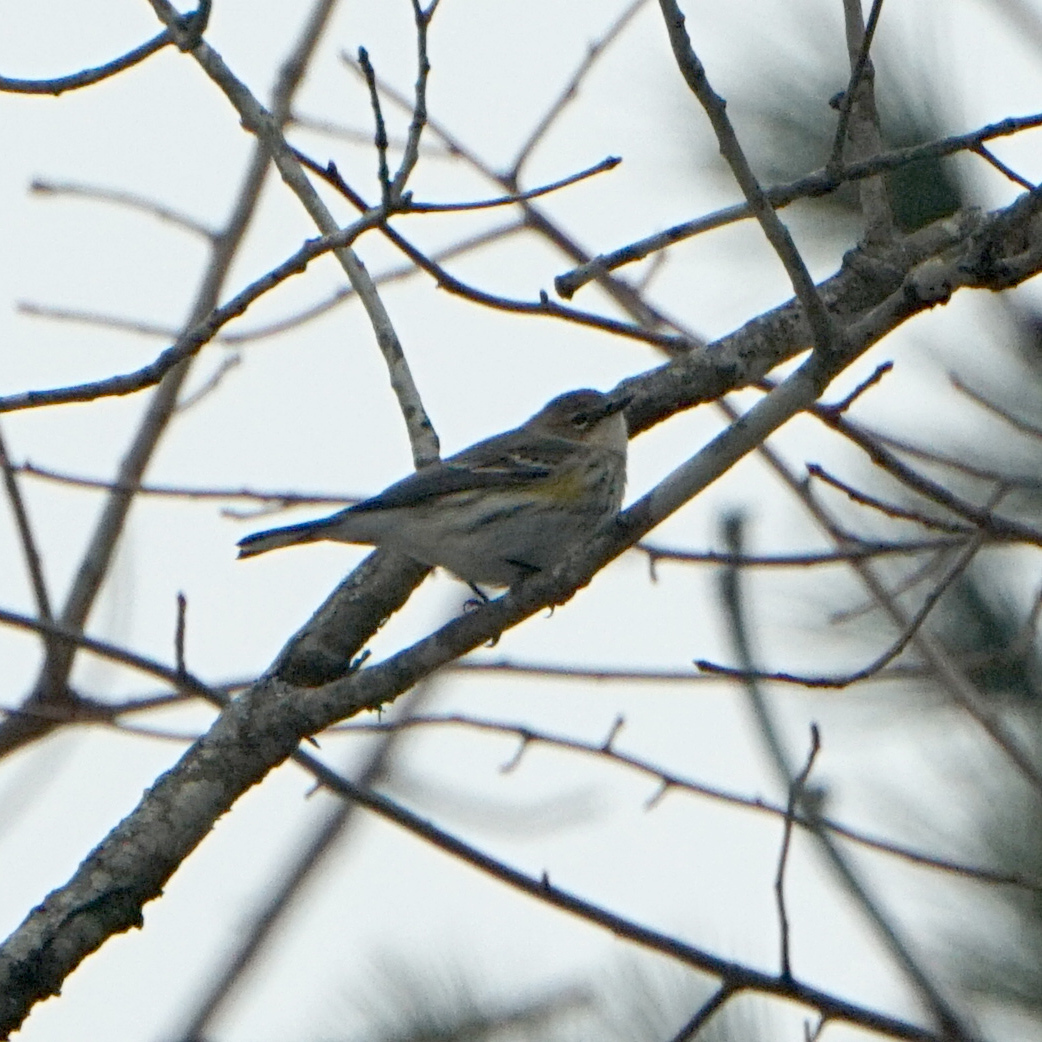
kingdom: Animalia
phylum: Chordata
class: Aves
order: Passeriformes
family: Parulidae
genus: Setophaga
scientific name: Setophaga coronata
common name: Myrtle warbler
